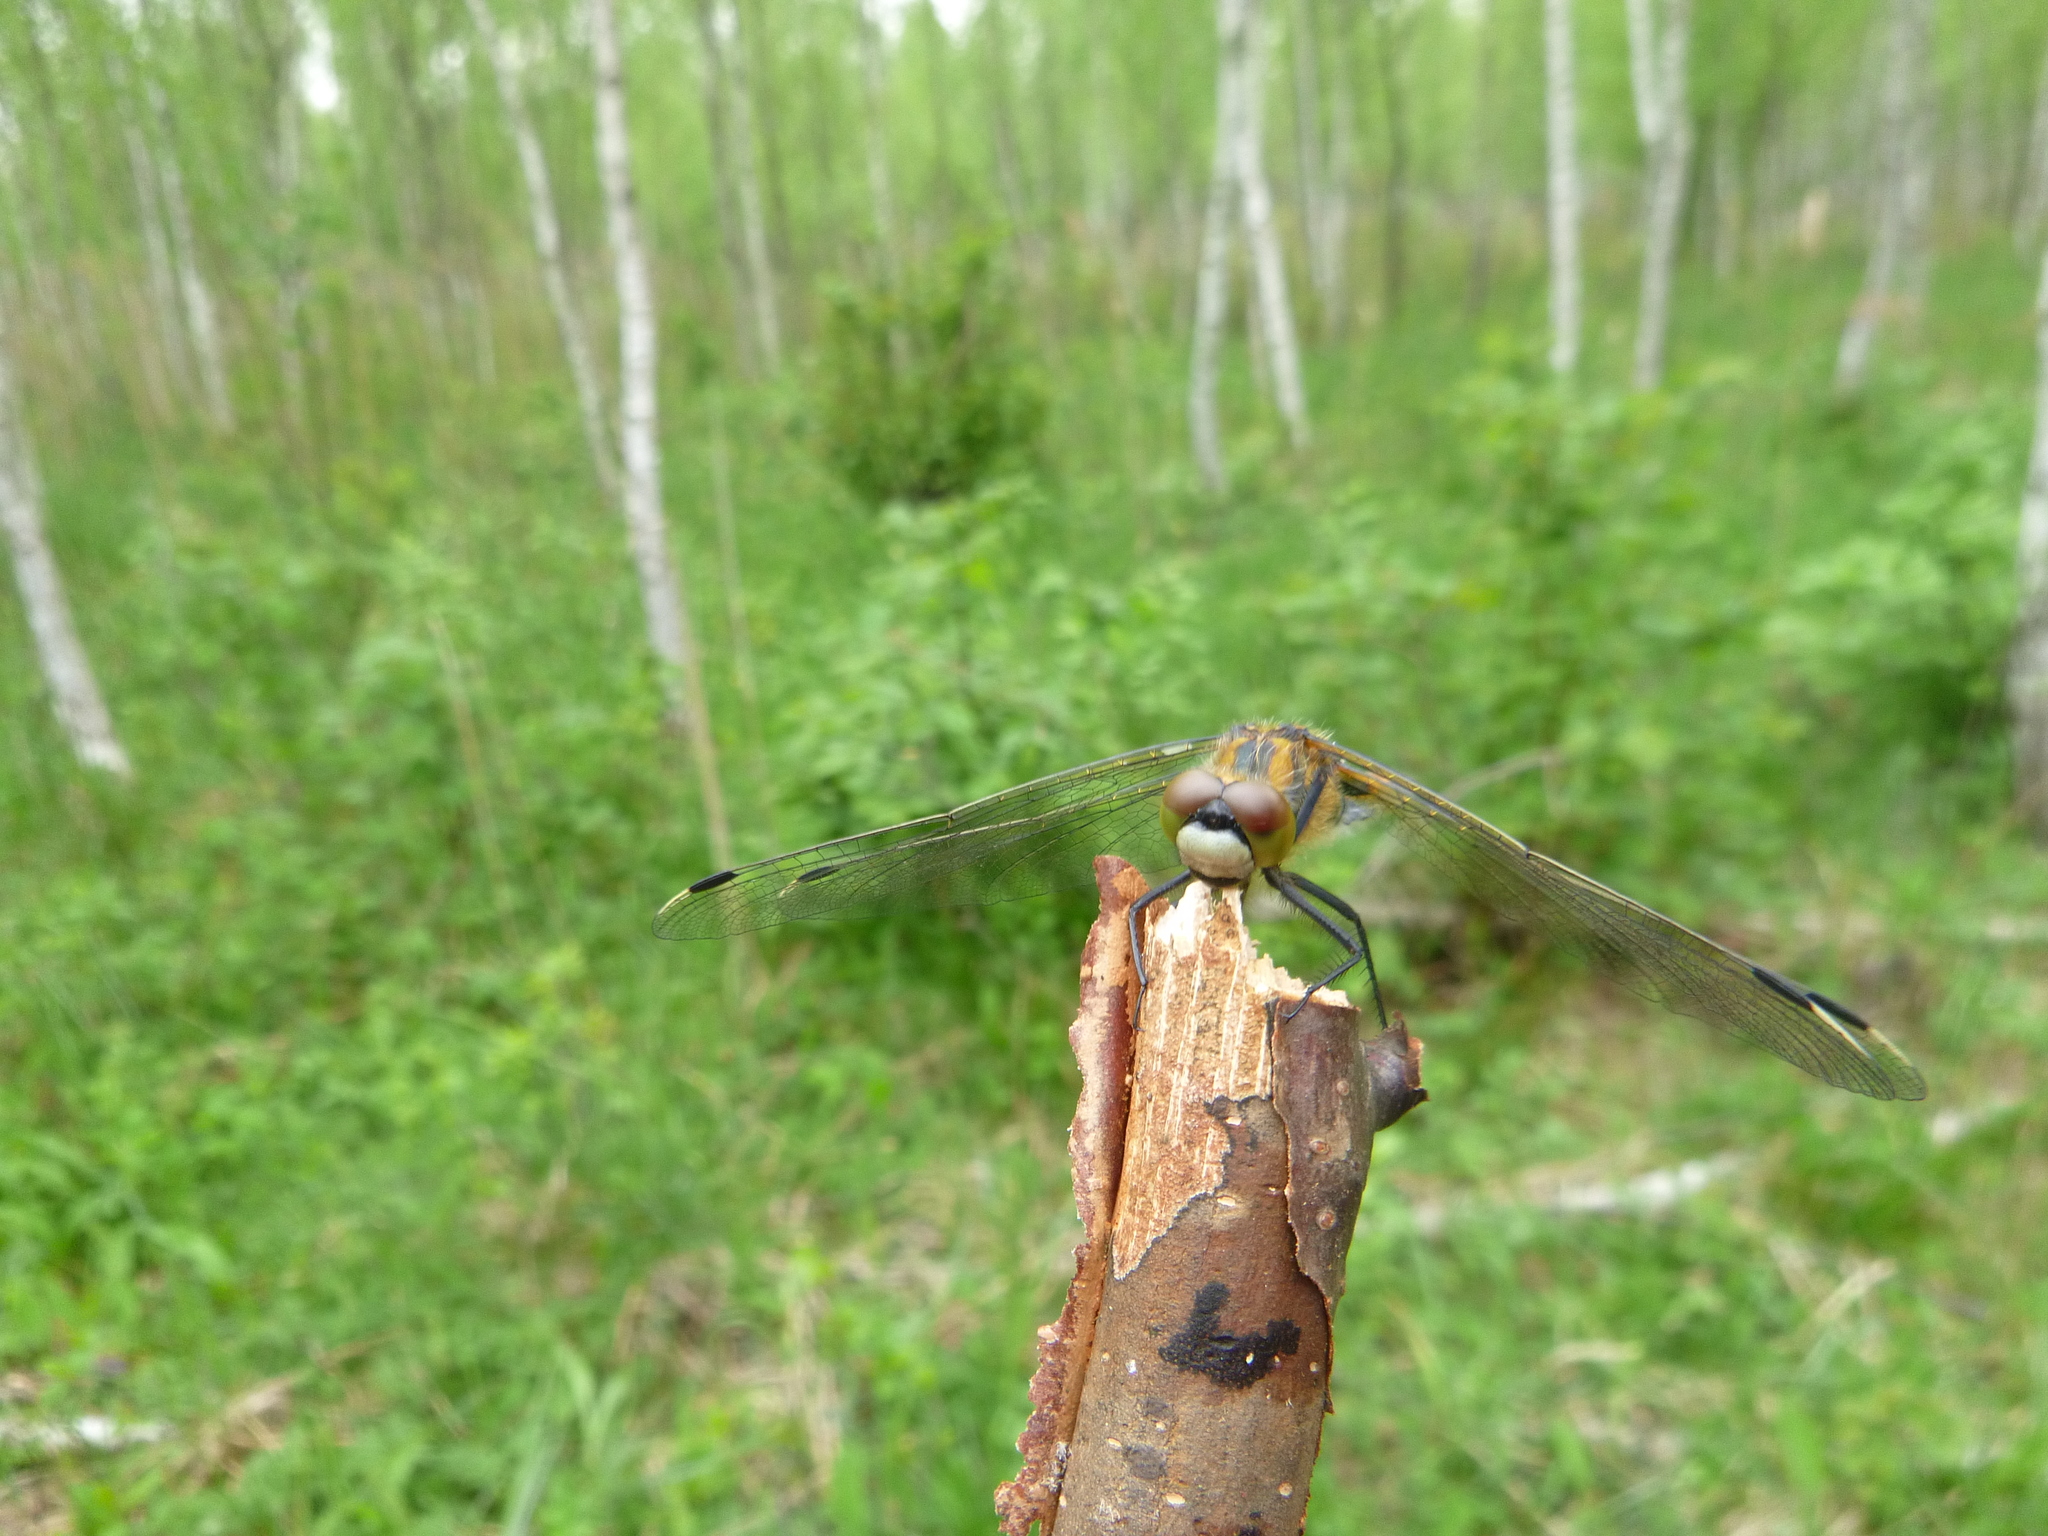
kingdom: Animalia
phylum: Arthropoda
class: Insecta
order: Odonata
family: Libellulidae
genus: Leucorrhinia
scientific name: Leucorrhinia pectoralis
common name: Yellow-spotted whiteface
